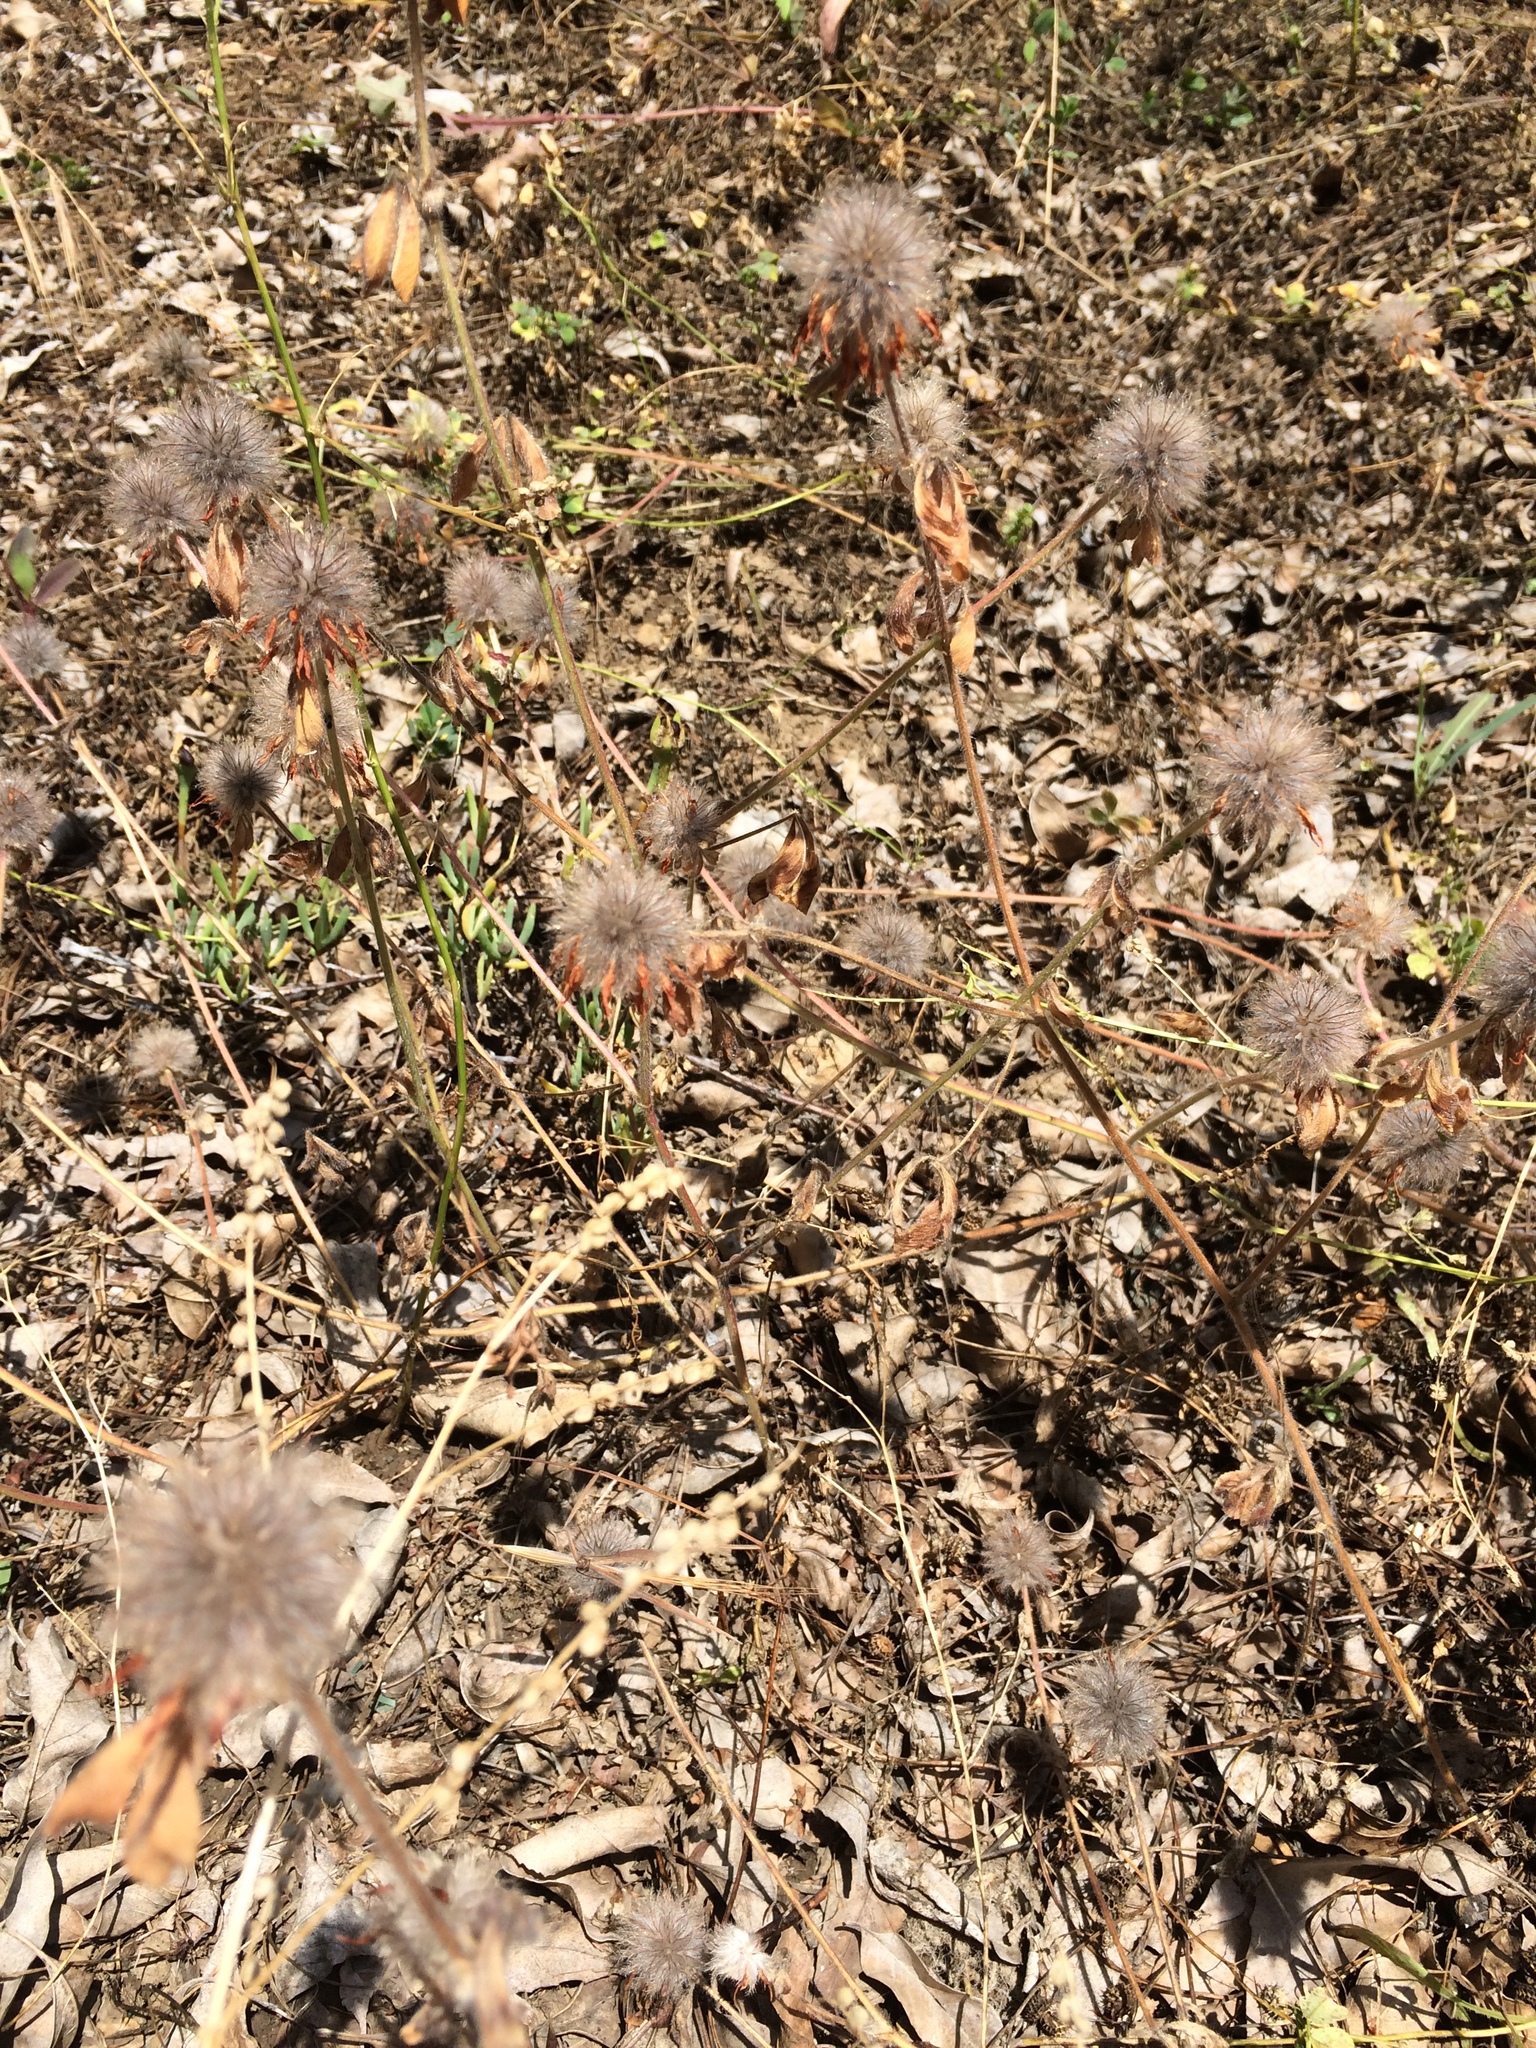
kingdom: Plantae
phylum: Tracheophyta
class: Magnoliopsida
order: Fabales
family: Fabaceae
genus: Trifolium
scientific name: Trifolium hirtum
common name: Rose clover
